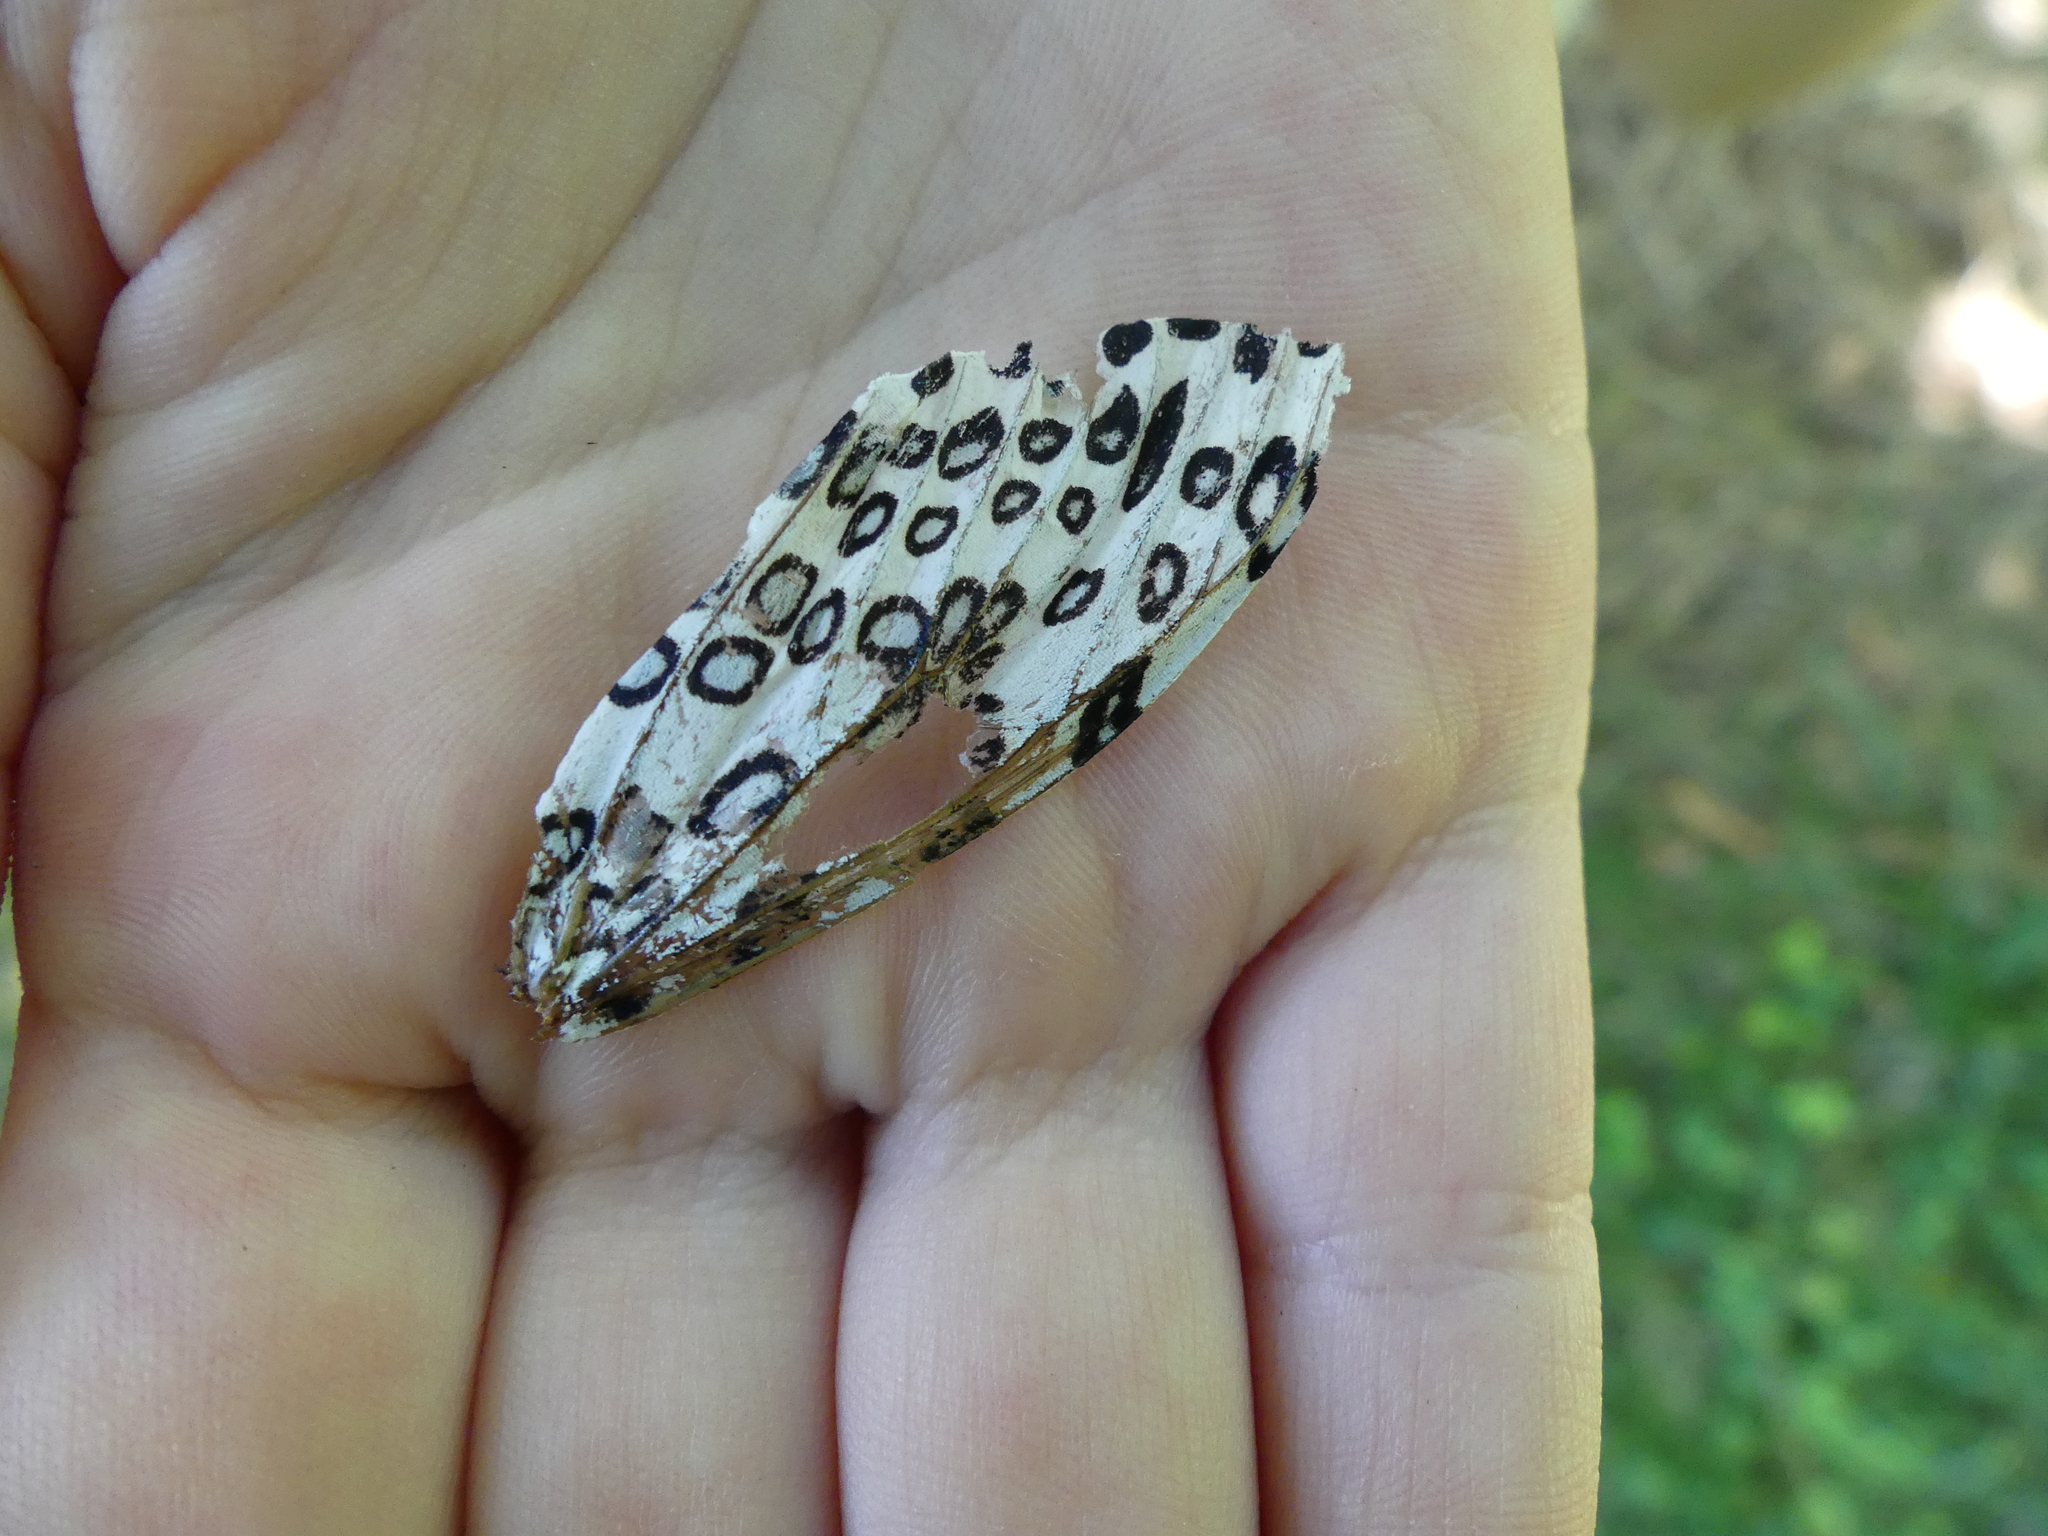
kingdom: Animalia
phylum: Arthropoda
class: Insecta
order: Lepidoptera
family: Erebidae
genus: Hypercompe
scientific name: Hypercompe scribonia
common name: Giant leopard moth
